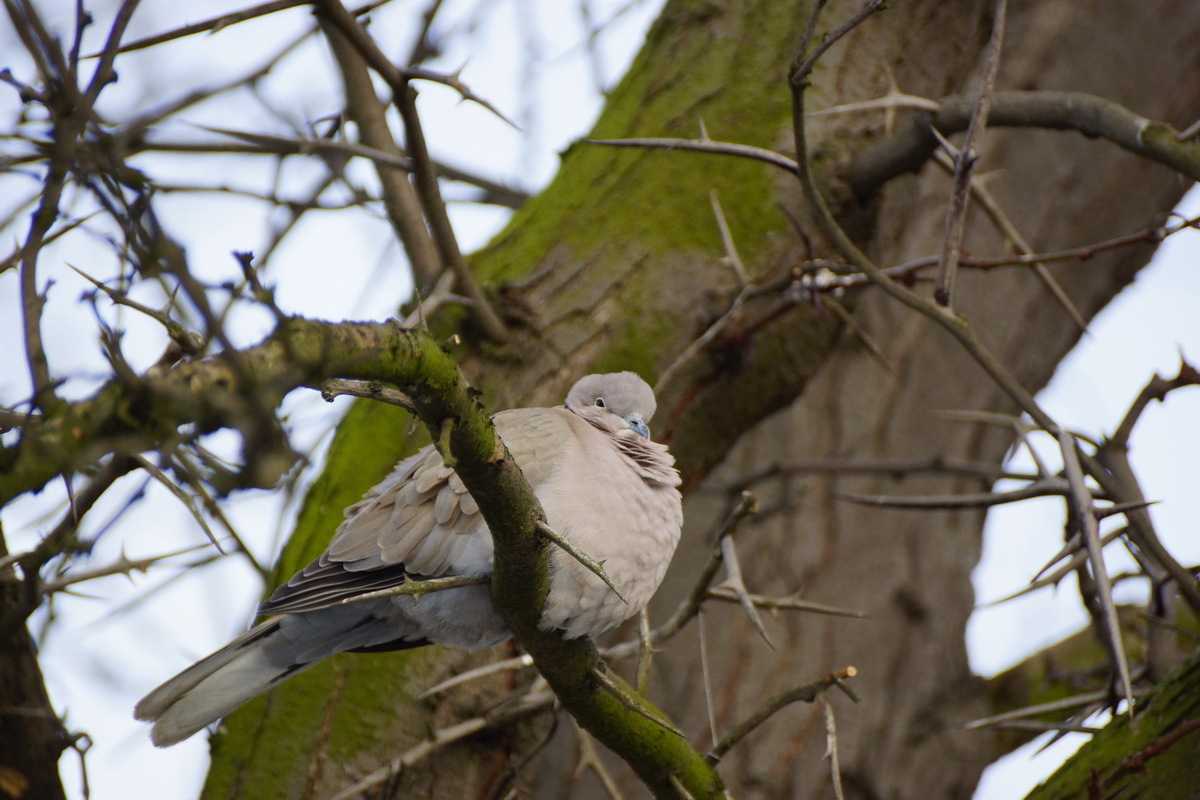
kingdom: Animalia
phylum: Chordata
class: Aves
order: Columbiformes
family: Columbidae
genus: Streptopelia
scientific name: Streptopelia decaocto
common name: Eurasian collared dove
